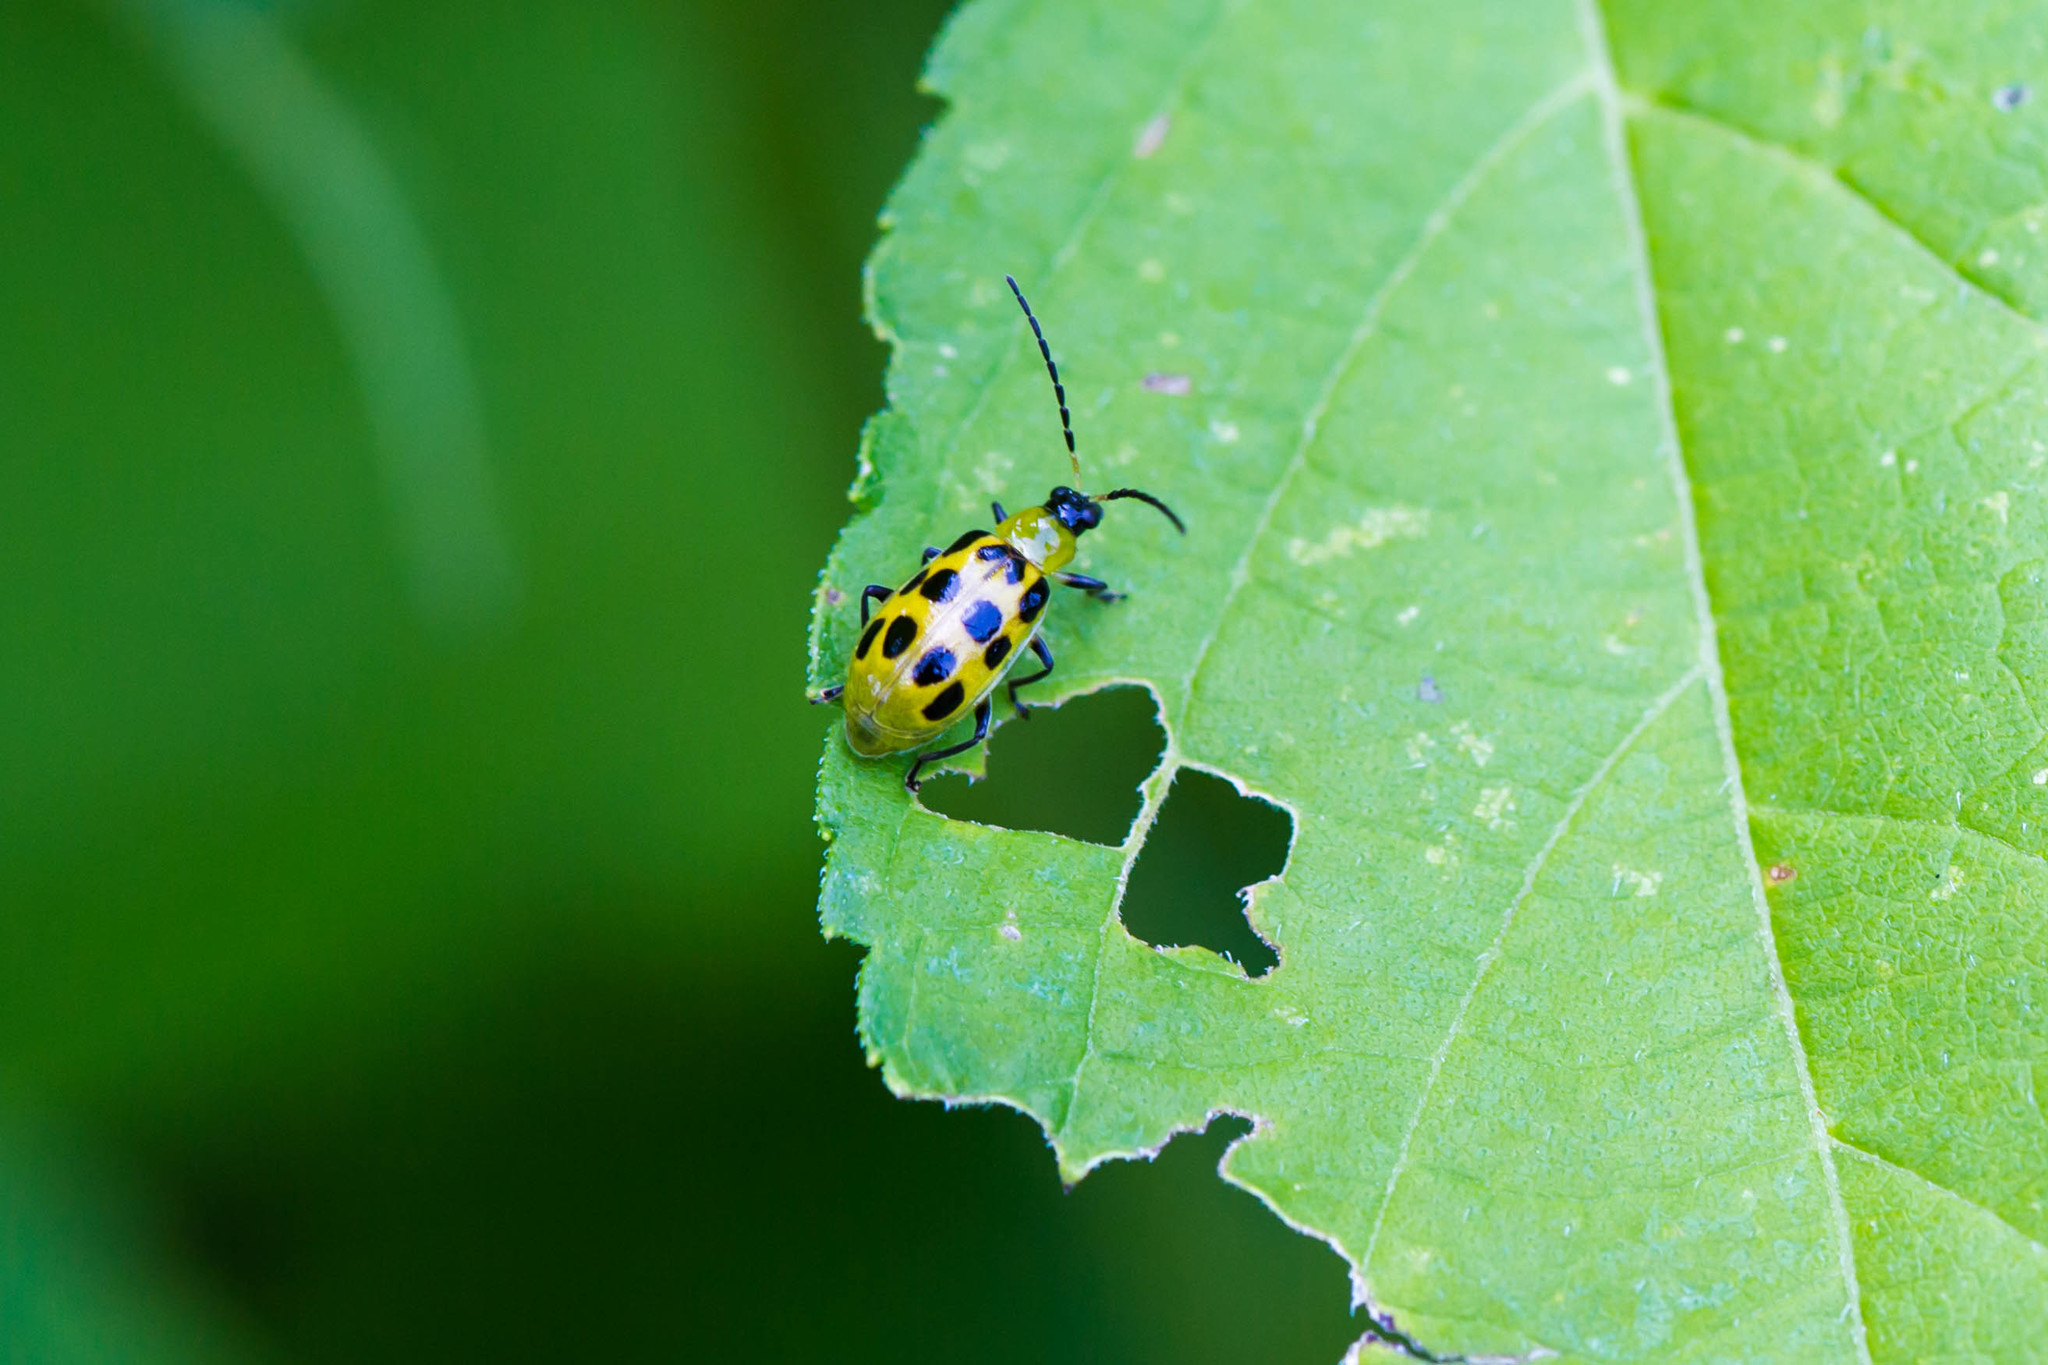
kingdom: Animalia
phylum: Arthropoda
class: Insecta
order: Coleoptera
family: Chrysomelidae
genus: Diabrotica
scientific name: Diabrotica undecimpunctata
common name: Spotted cucumber beetle
